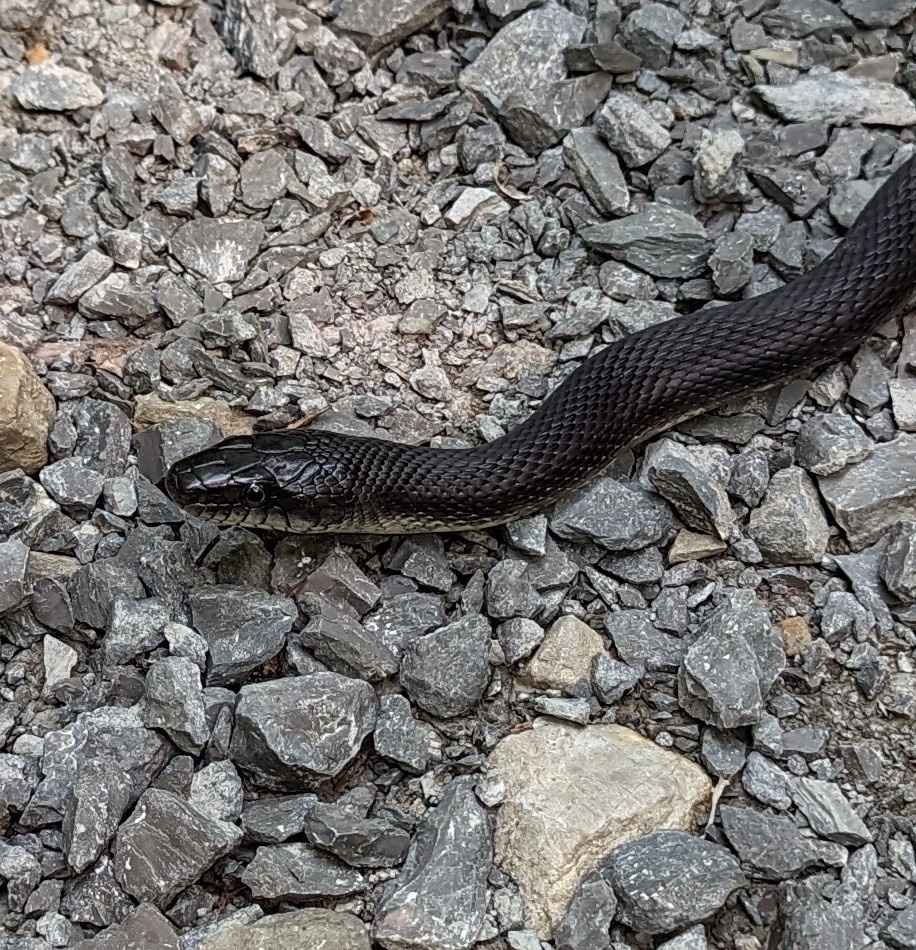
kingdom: Animalia
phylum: Chordata
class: Squamata
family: Colubridae
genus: Pantherophis
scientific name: Pantherophis spiloides
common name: Gray rat snake
